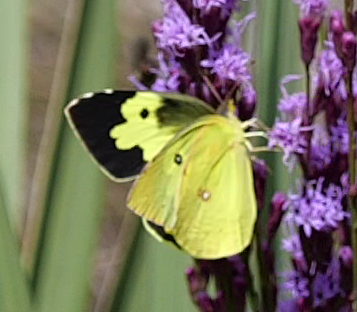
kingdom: Animalia
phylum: Arthropoda
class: Insecta
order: Lepidoptera
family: Pieridae
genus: Zerene
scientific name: Zerene cesonia
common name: Southern dogface
